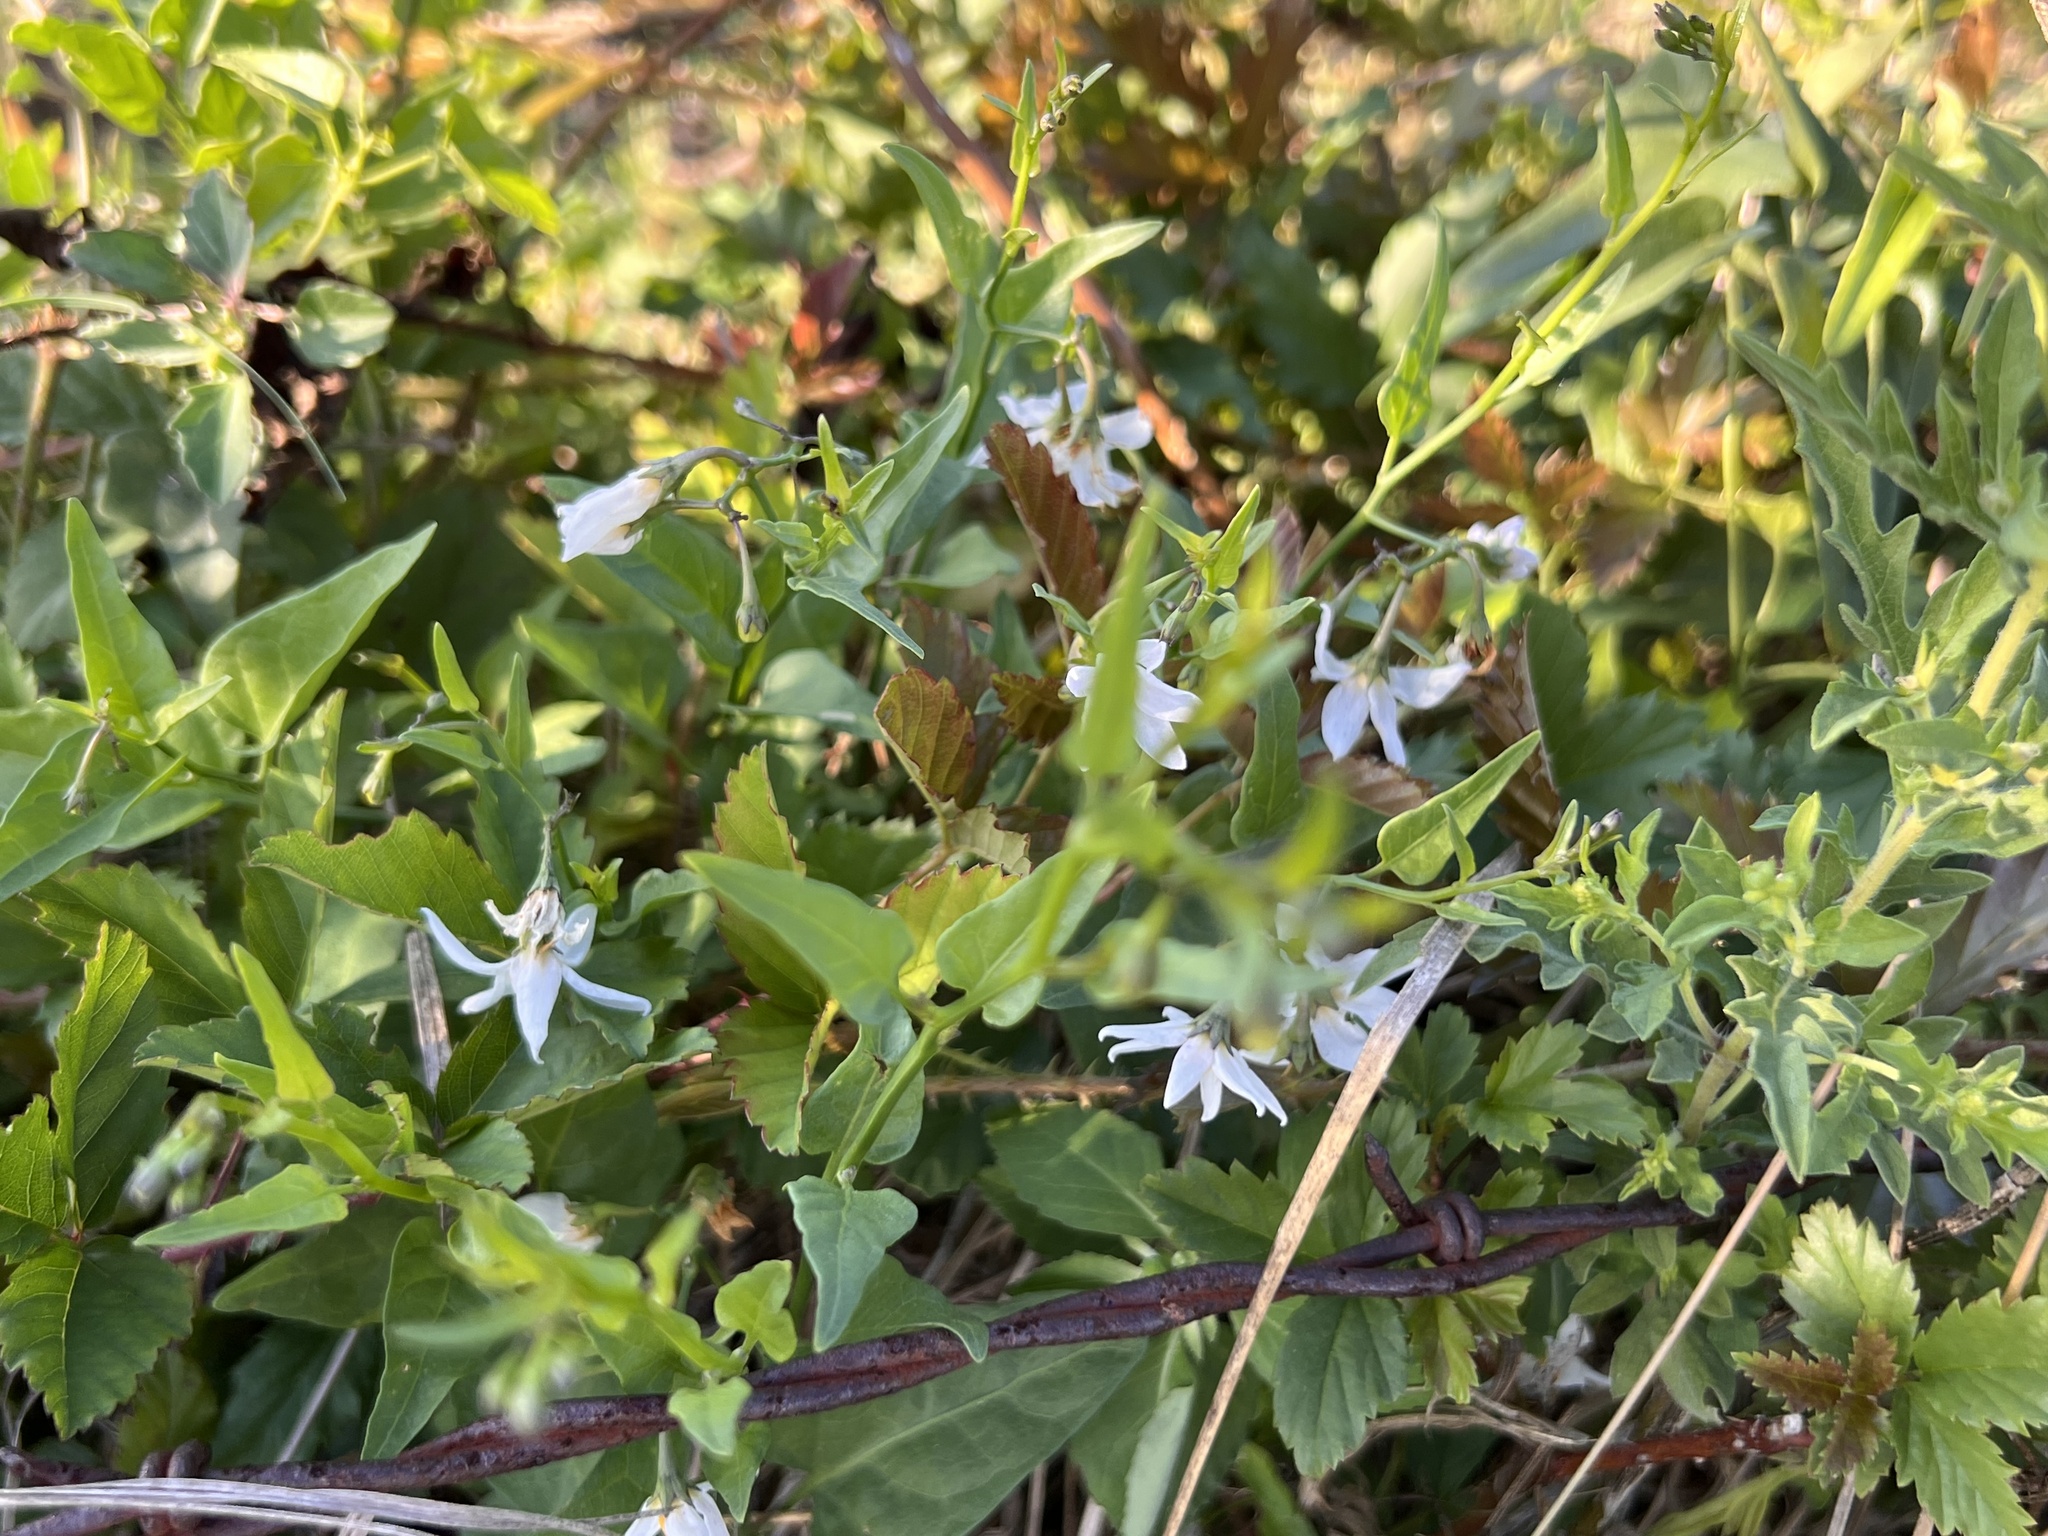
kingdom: Plantae
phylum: Tracheophyta
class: Magnoliopsida
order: Solanales
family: Solanaceae
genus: Solanum
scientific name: Solanum triquetrum
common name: Texas nightshade
